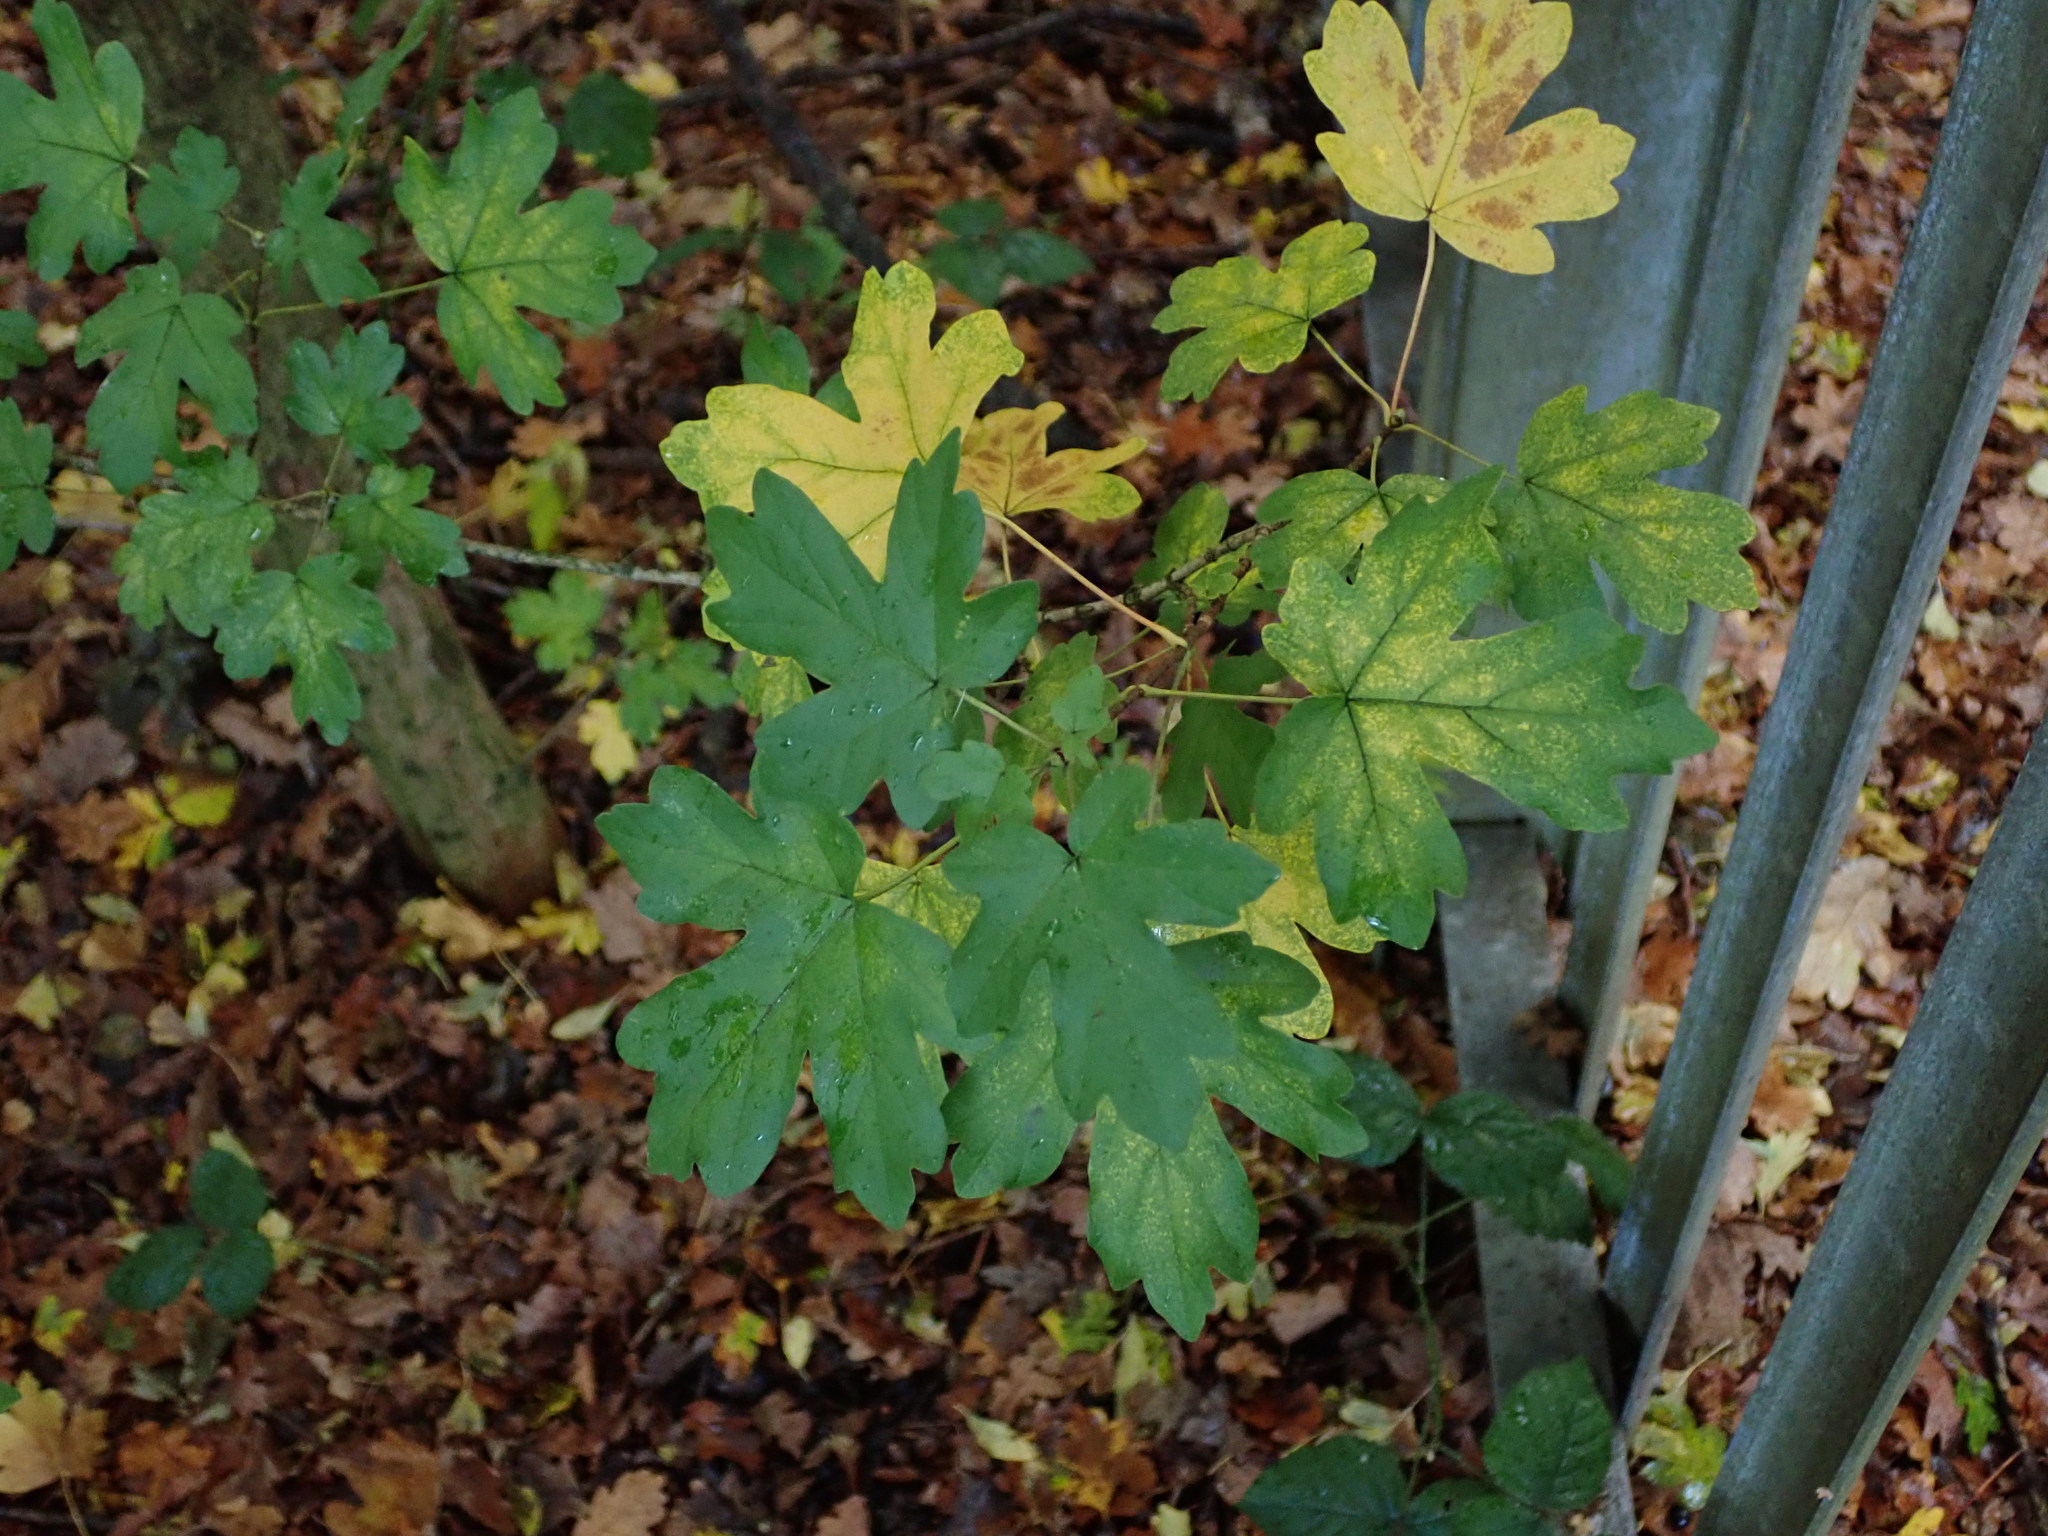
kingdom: Plantae
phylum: Tracheophyta
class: Magnoliopsida
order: Sapindales
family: Sapindaceae
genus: Acer
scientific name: Acer campestre
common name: Field maple
